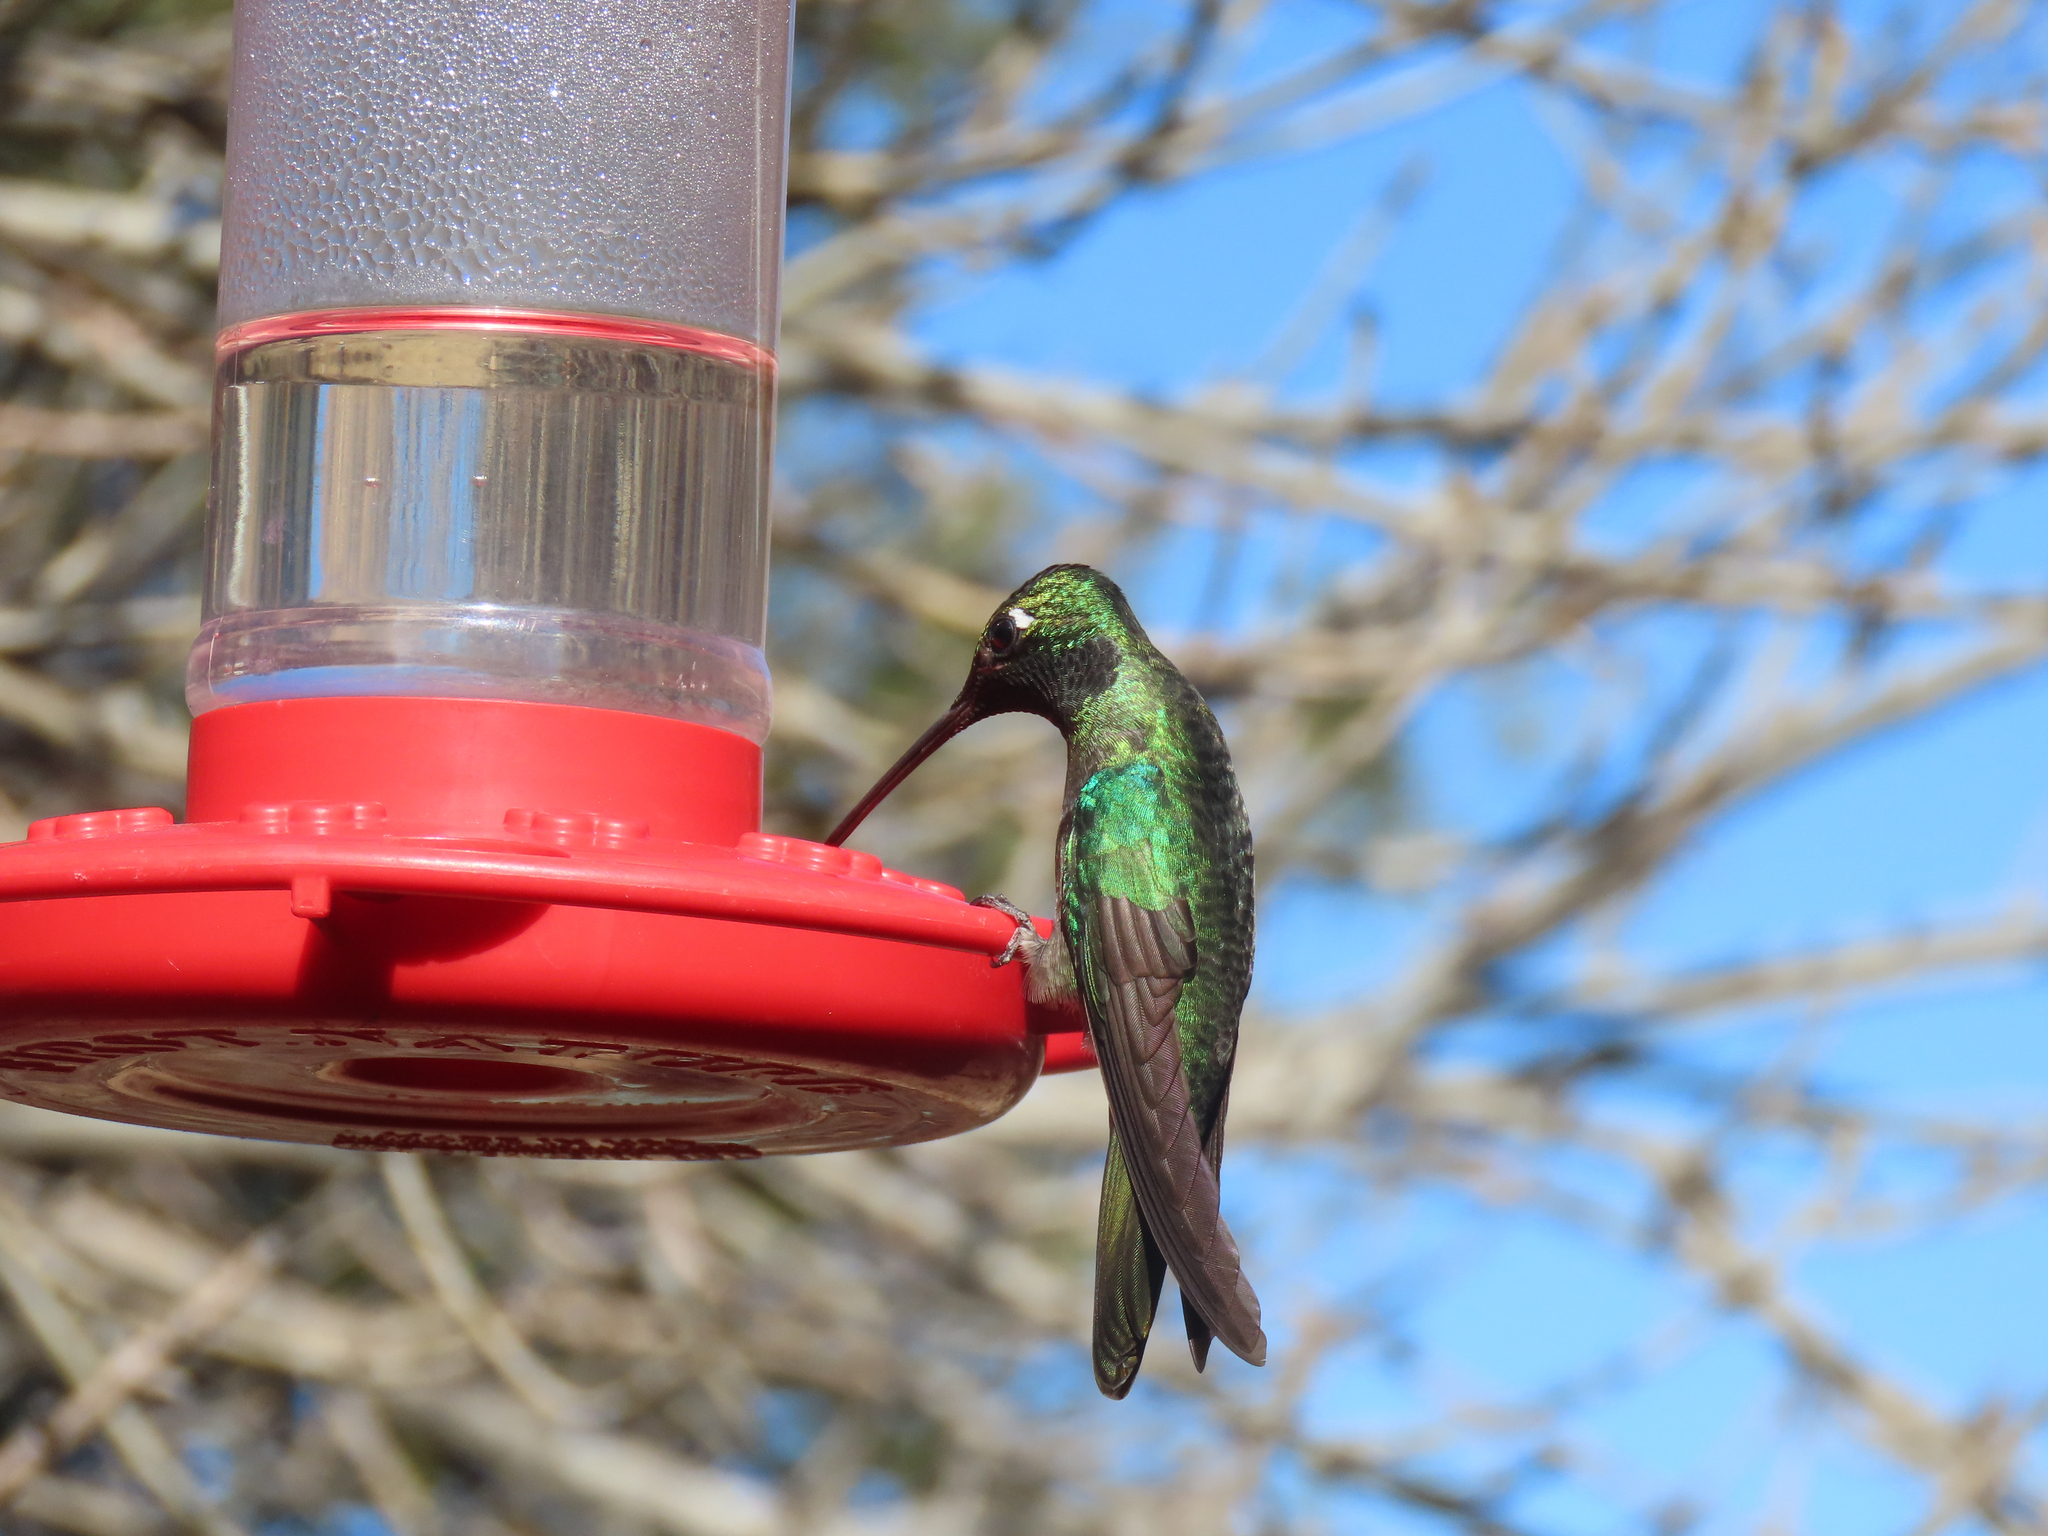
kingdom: Animalia
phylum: Chordata
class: Aves
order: Apodiformes
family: Trochilidae
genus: Eugenes
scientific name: Eugenes fulgens
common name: Magnificent hummingbird
